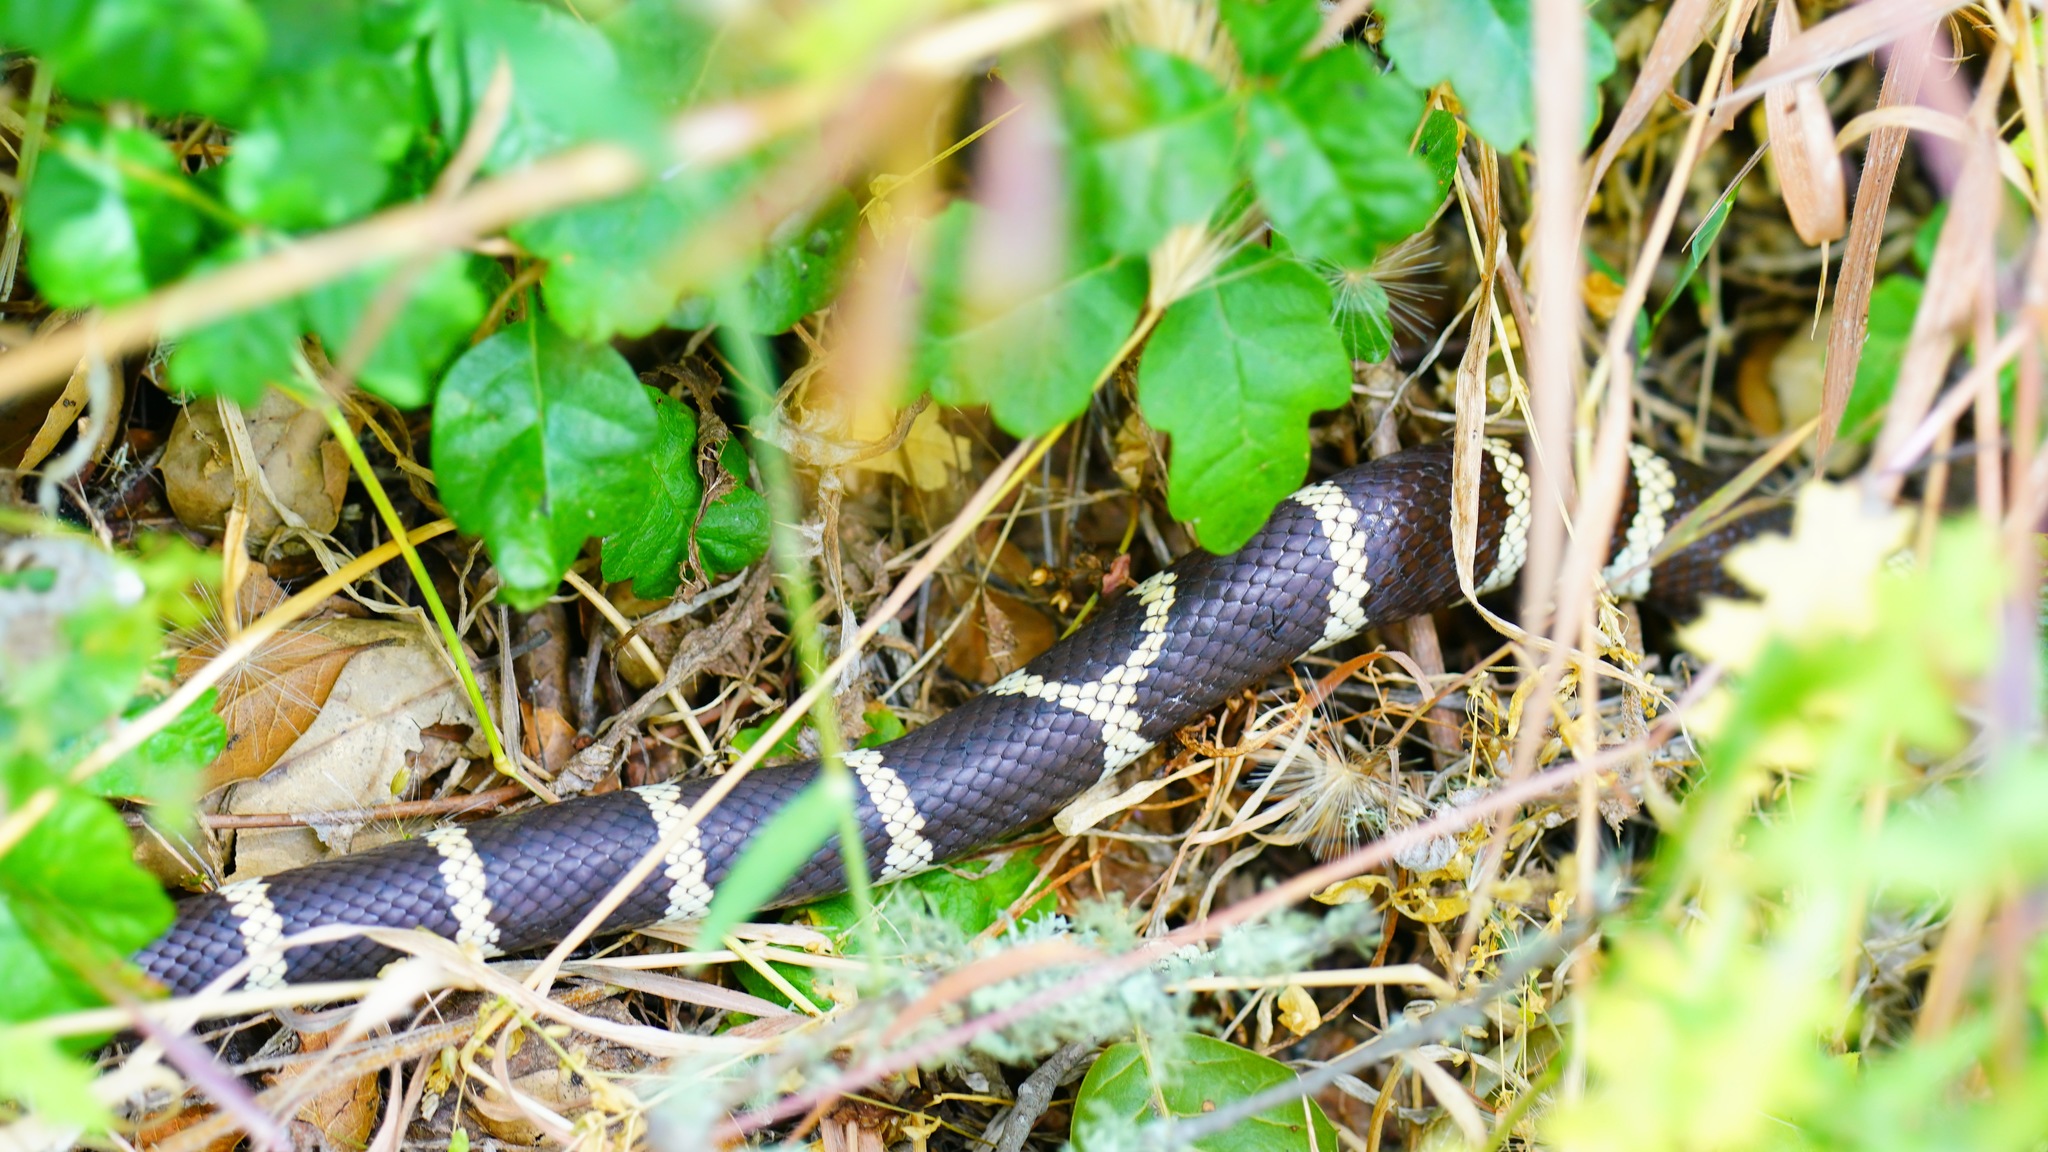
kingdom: Animalia
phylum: Chordata
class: Squamata
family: Colubridae
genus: Lampropeltis
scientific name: Lampropeltis californiae
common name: California kingsnake
